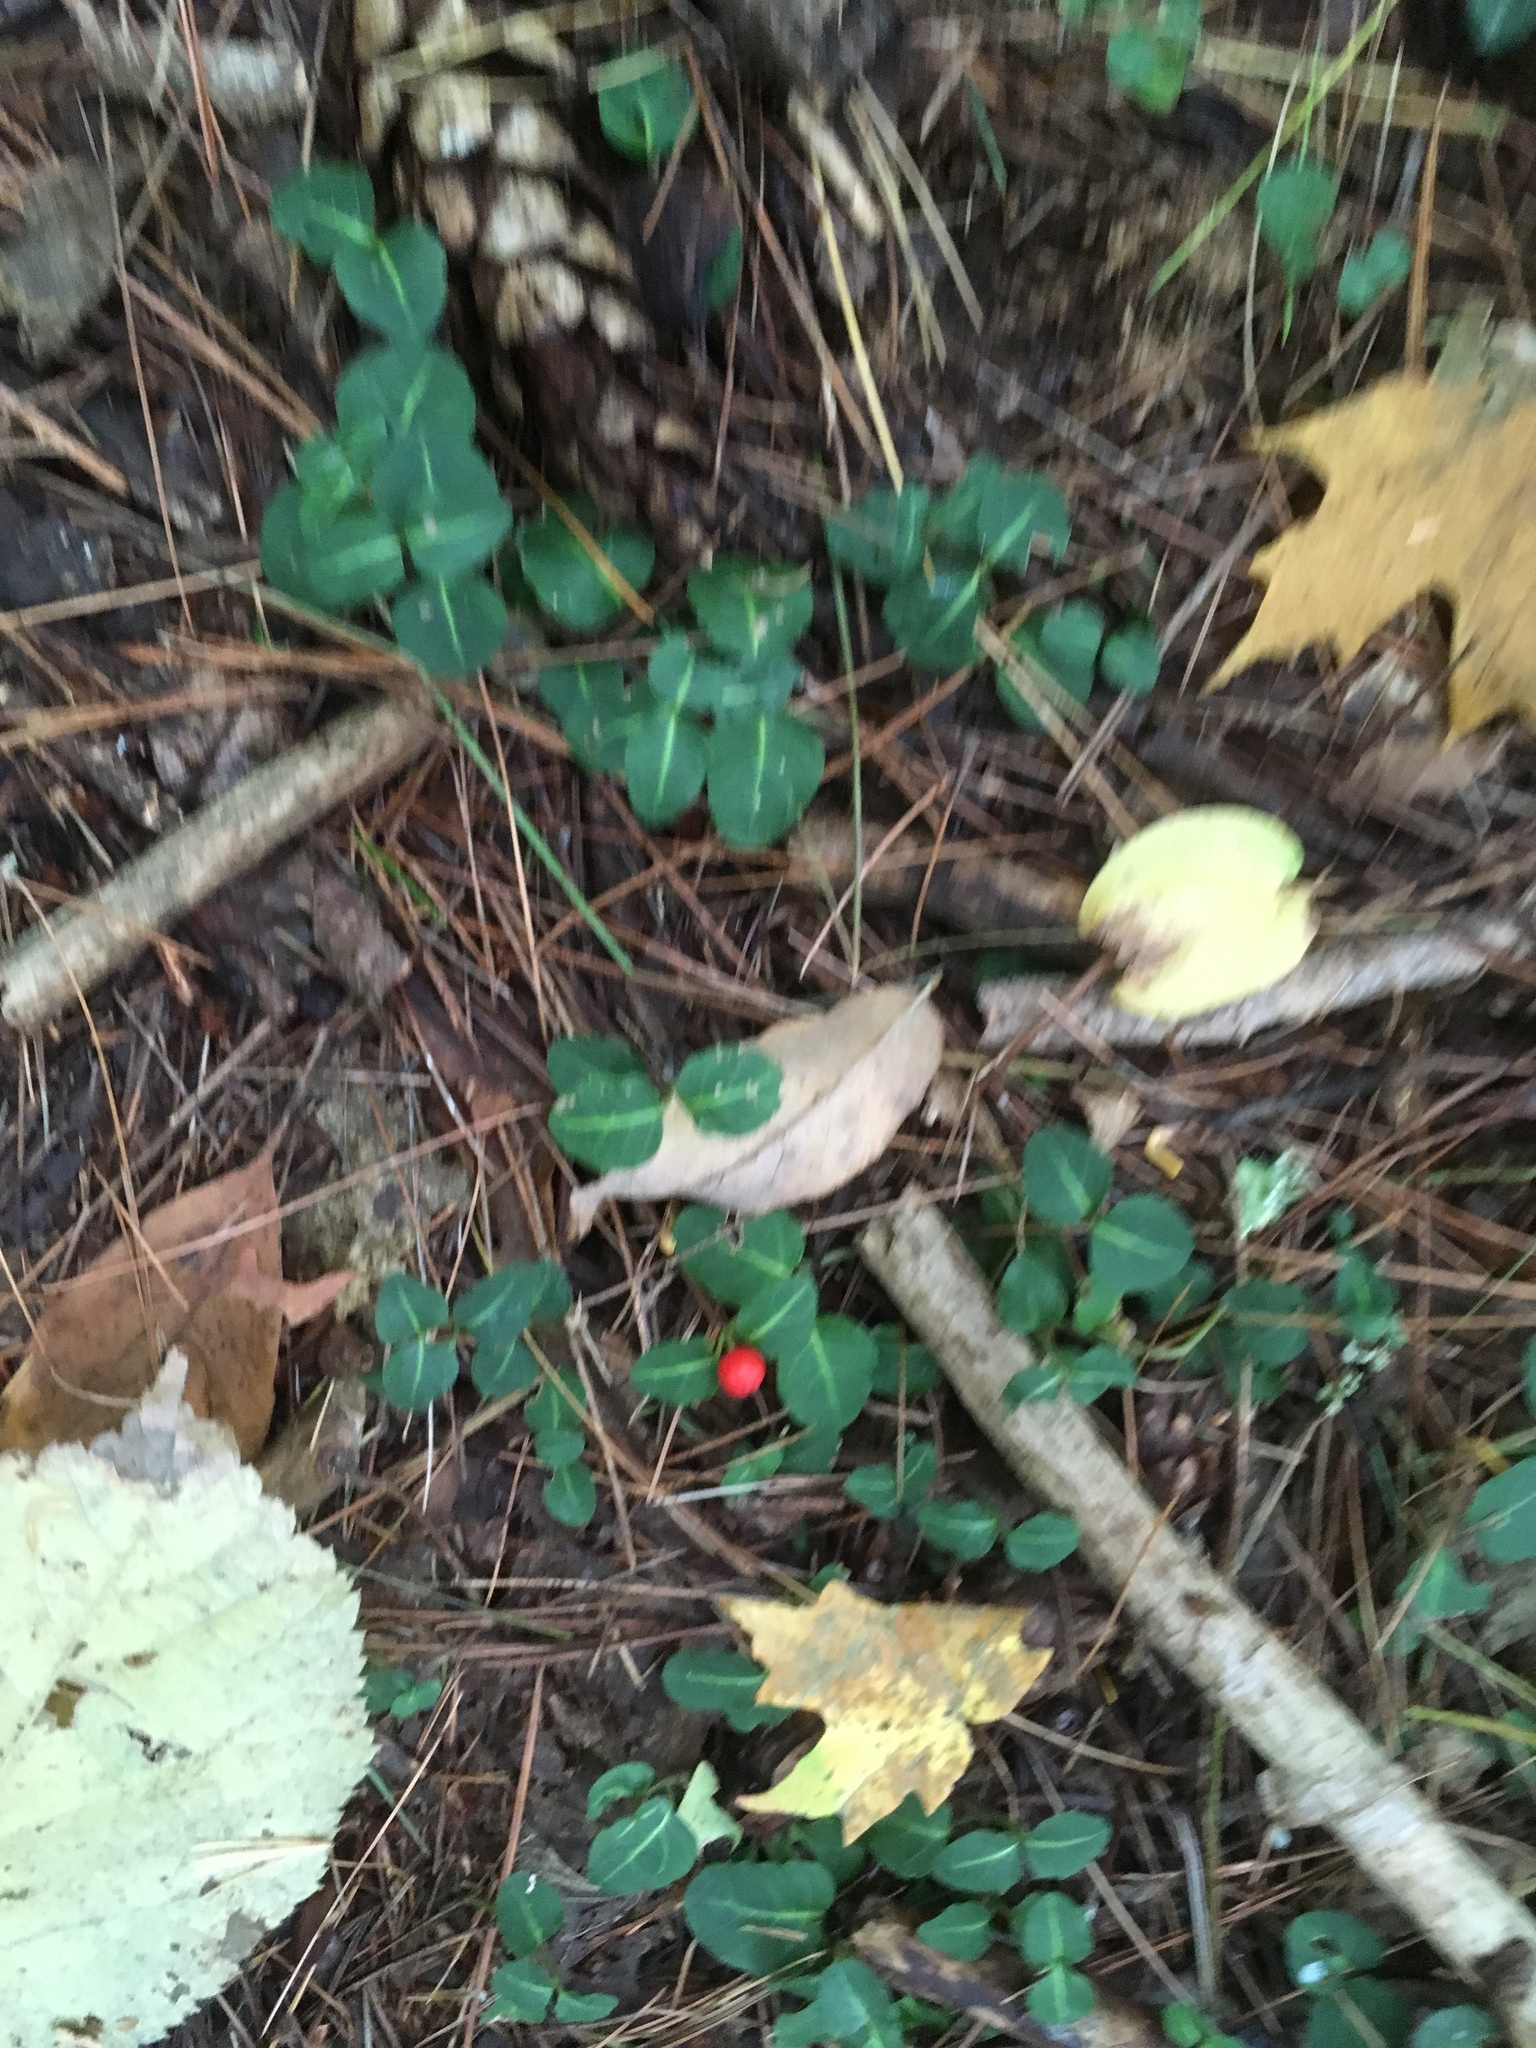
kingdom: Plantae
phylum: Tracheophyta
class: Magnoliopsida
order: Gentianales
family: Rubiaceae
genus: Mitchella
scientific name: Mitchella repens
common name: Partridge-berry
